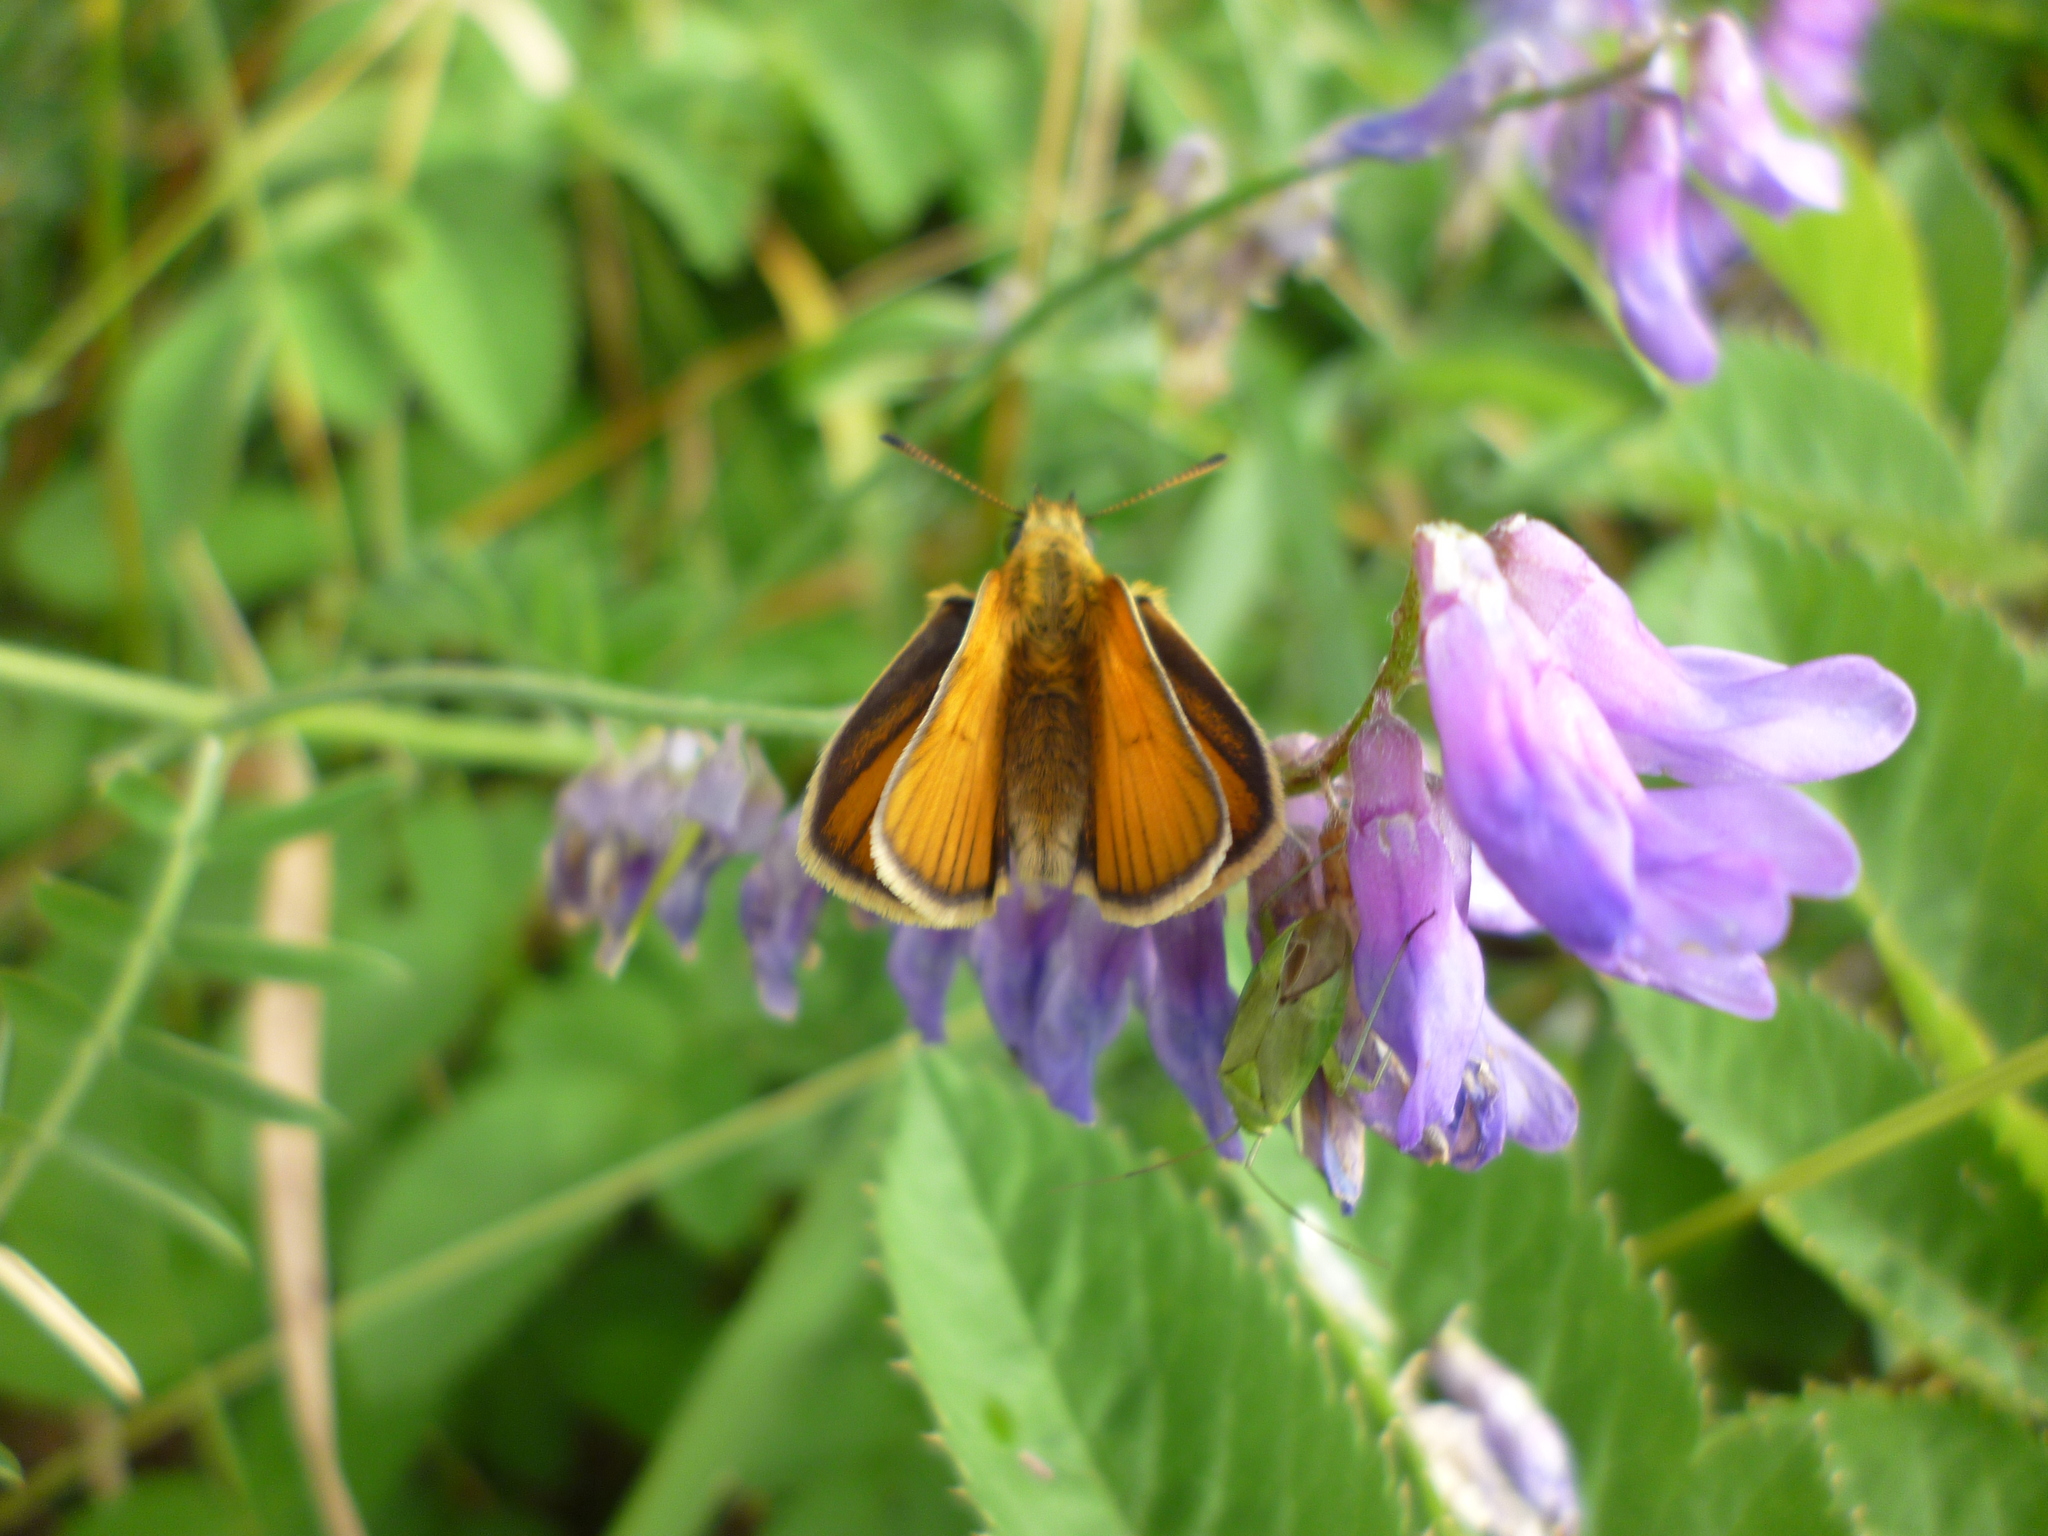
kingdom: Plantae
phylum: Tracheophyta
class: Magnoliopsida
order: Fabales
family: Fabaceae
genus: Vicia
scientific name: Vicia cracca
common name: Bird vetch
